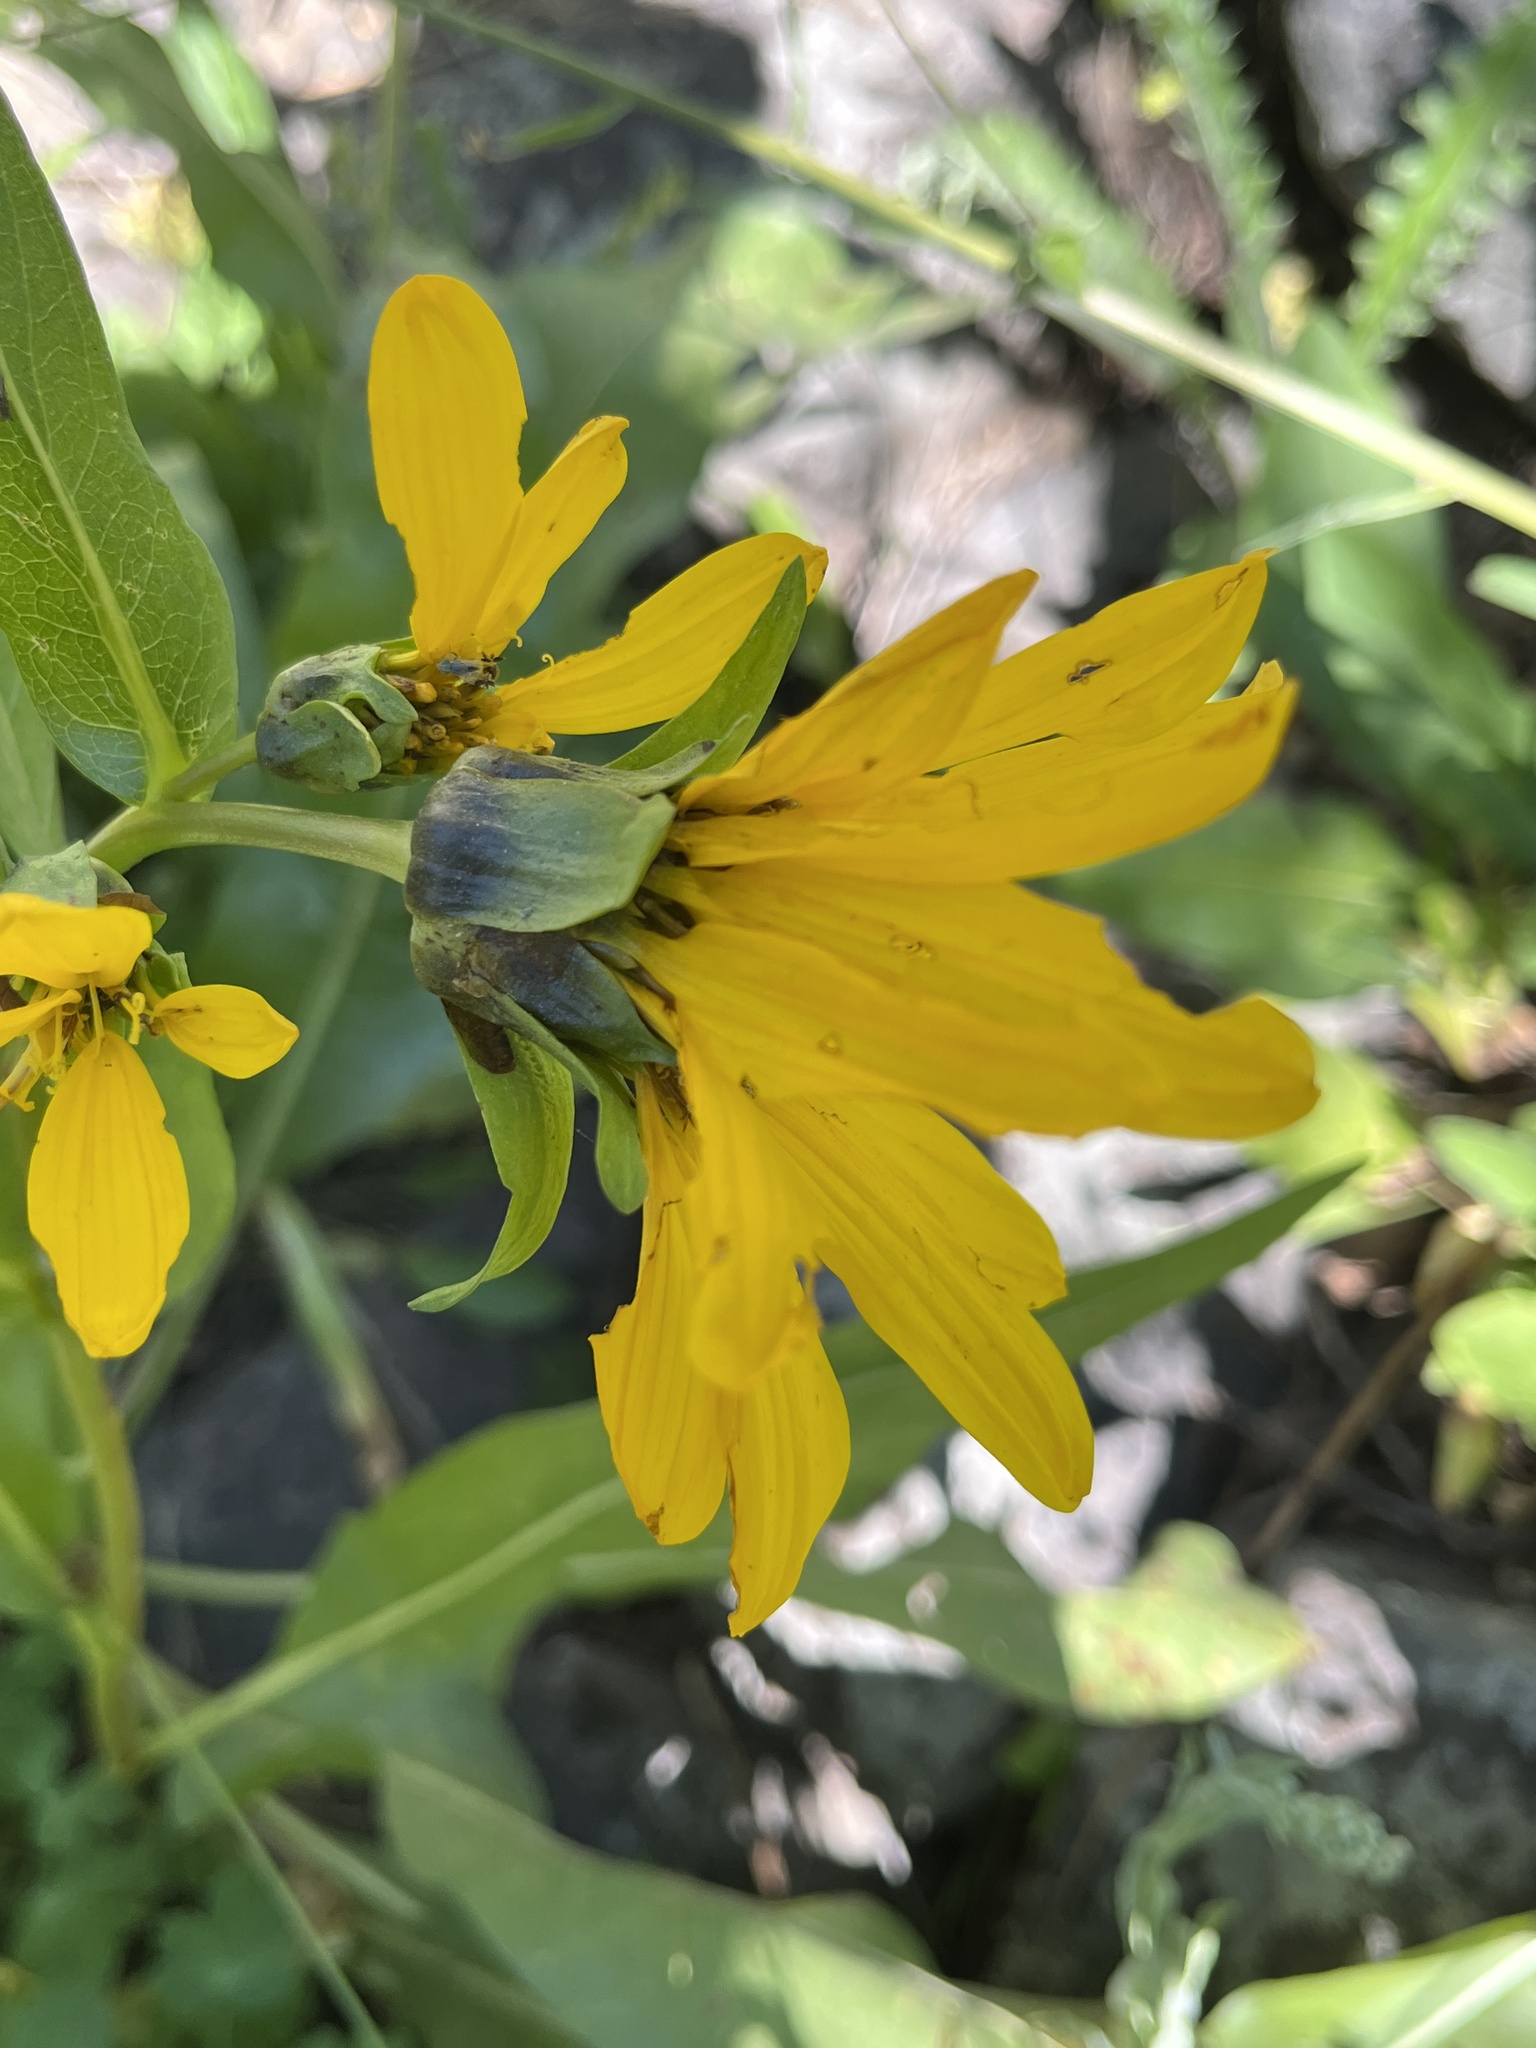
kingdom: Plantae
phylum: Tracheophyta
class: Magnoliopsida
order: Asterales
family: Asteraceae
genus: Wyethia
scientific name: Wyethia amplexicaulis
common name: Northern mule's-ears
